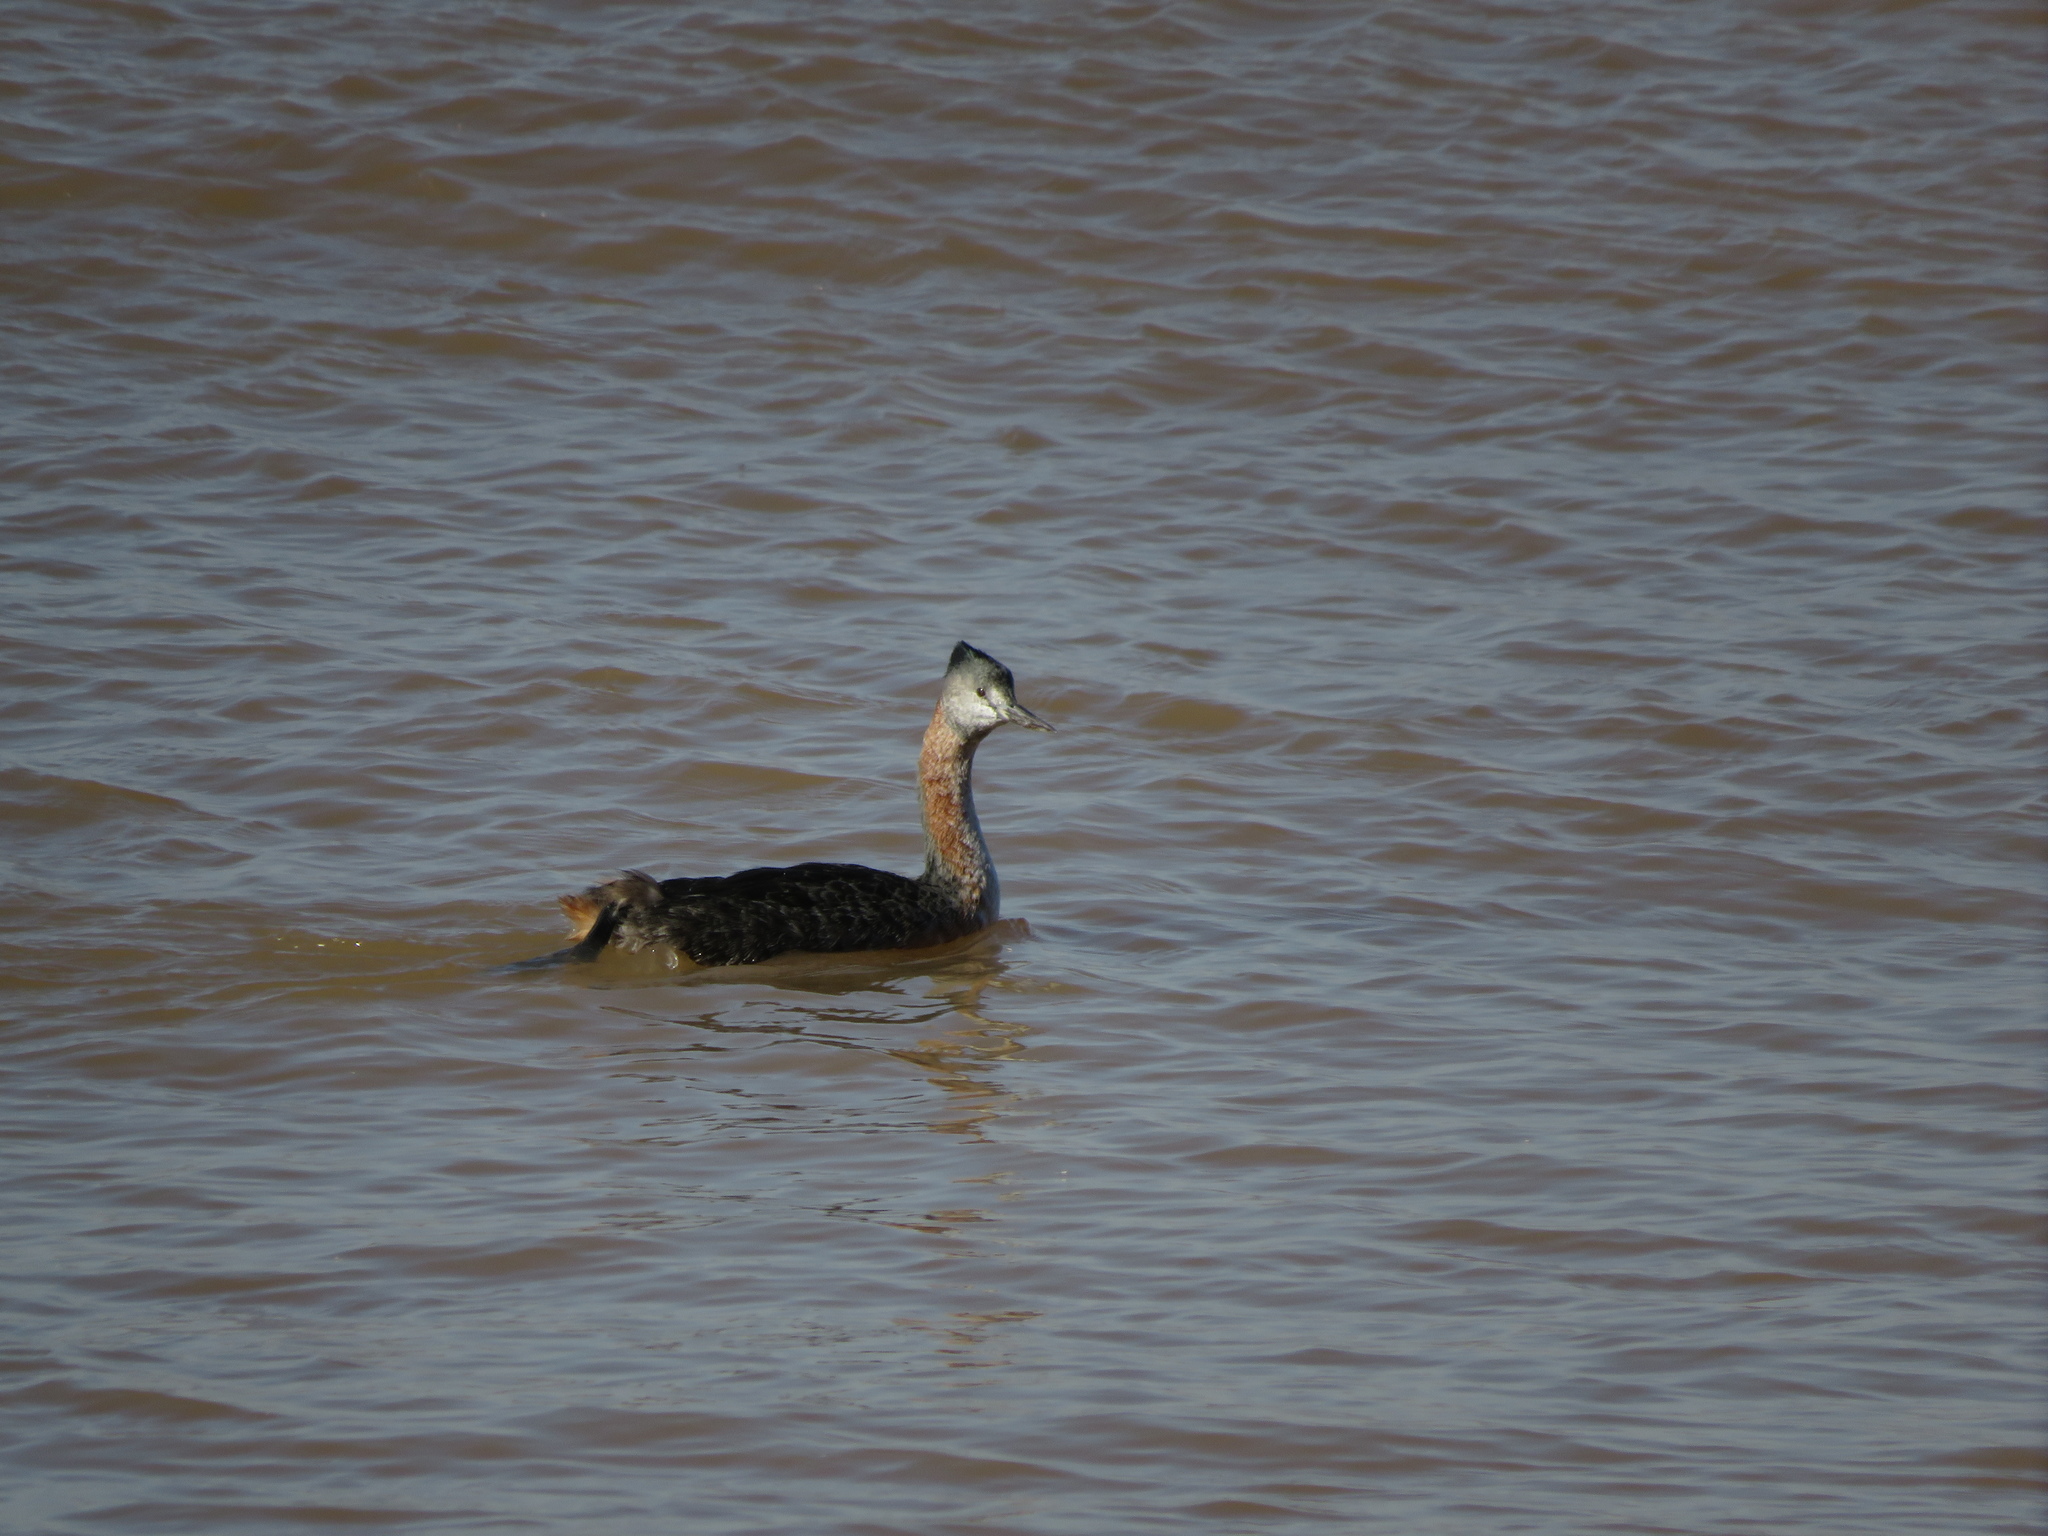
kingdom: Animalia
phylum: Chordata
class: Aves
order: Podicipediformes
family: Podicipedidae
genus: Podiceps
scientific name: Podiceps major
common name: Great grebe
